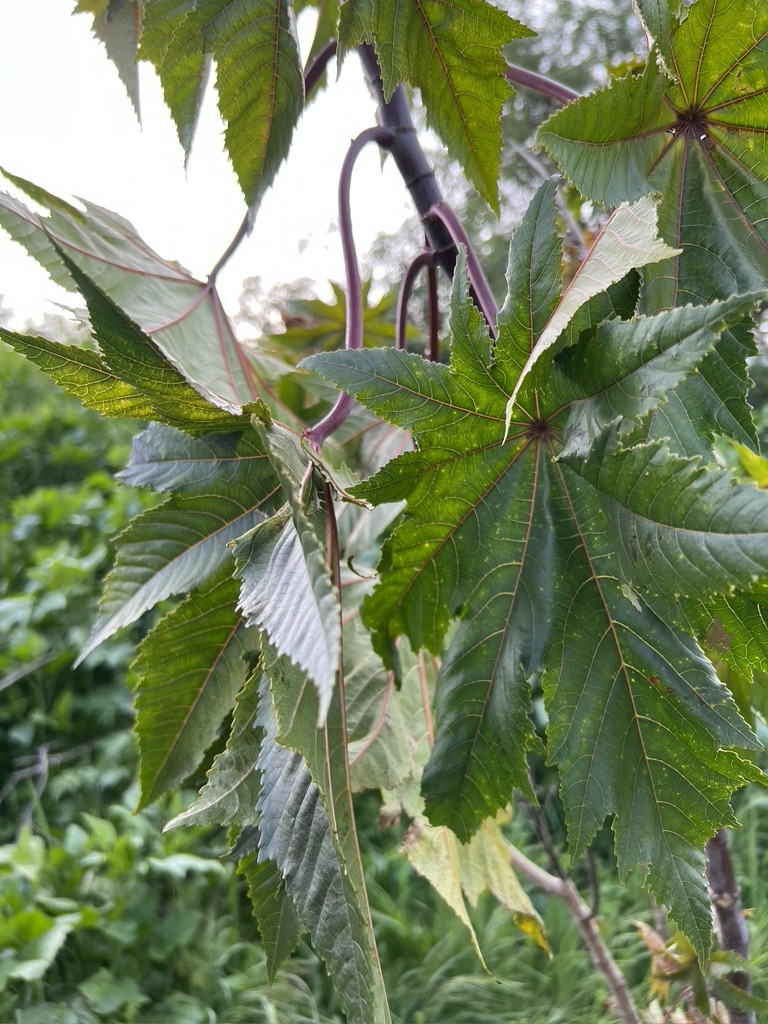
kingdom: Plantae
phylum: Tracheophyta
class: Magnoliopsida
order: Malpighiales
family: Euphorbiaceae
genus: Ricinus
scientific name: Ricinus communis
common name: Castor-oil-plant
